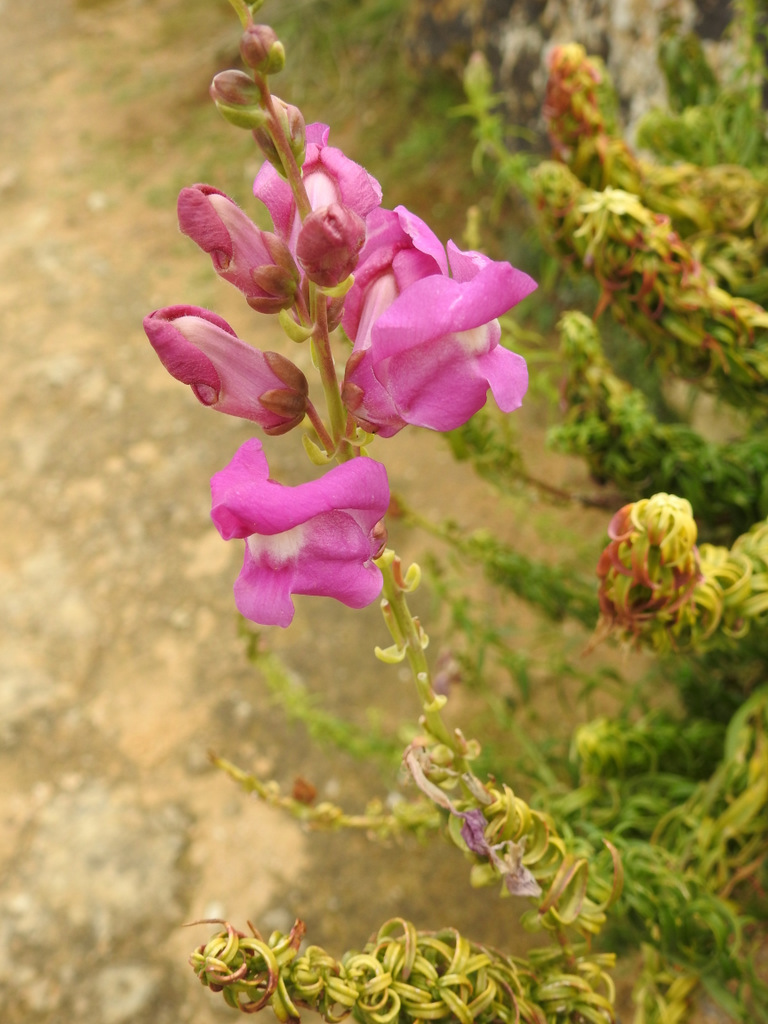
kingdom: Plantae
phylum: Tracheophyta
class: Magnoliopsida
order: Lamiales
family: Plantaginaceae
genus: Antirrhinum
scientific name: Antirrhinum tortuosum
